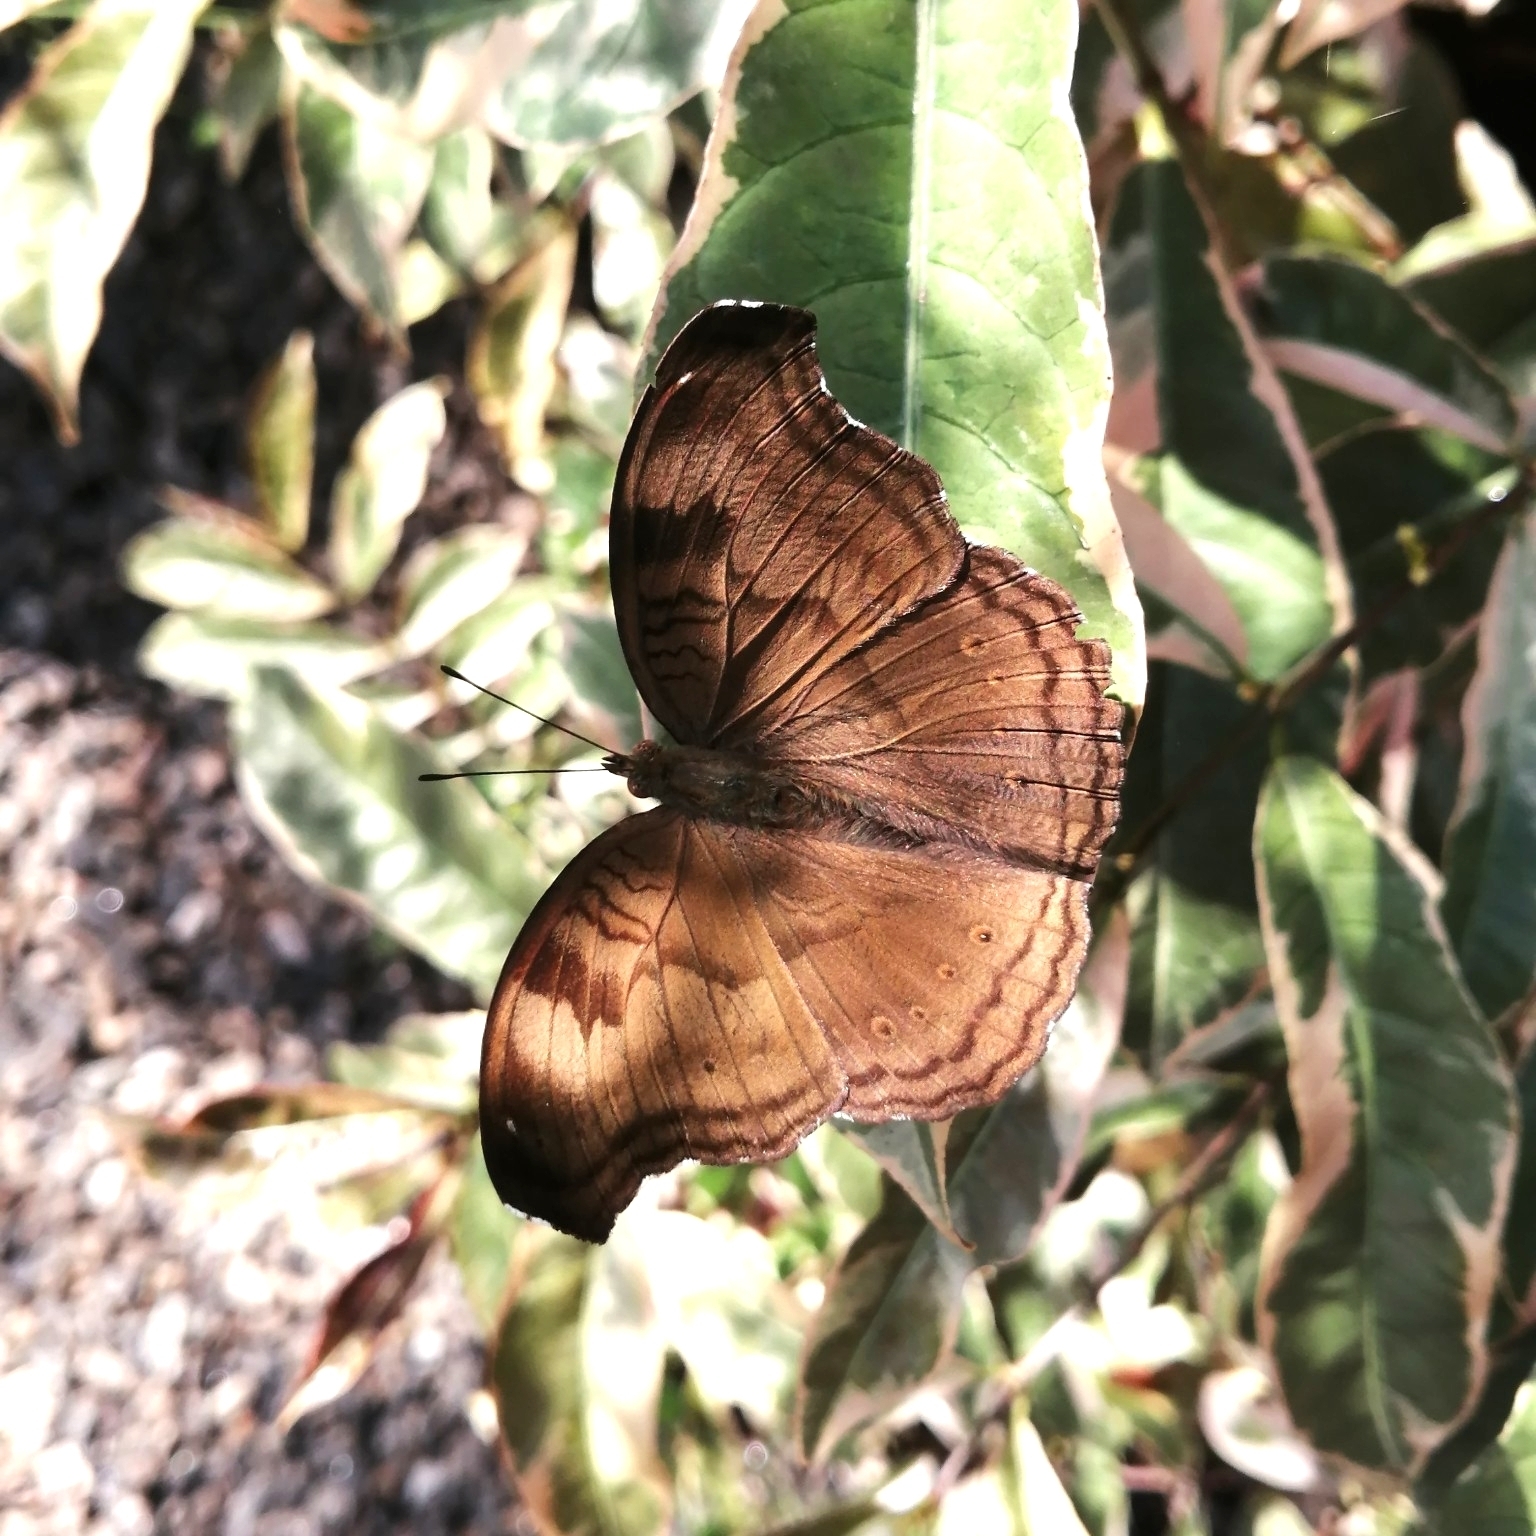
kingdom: Animalia
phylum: Arthropoda
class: Insecta
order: Lepidoptera
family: Nymphalidae
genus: Junonia
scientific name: Junonia iphita
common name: Chocolate pansy
